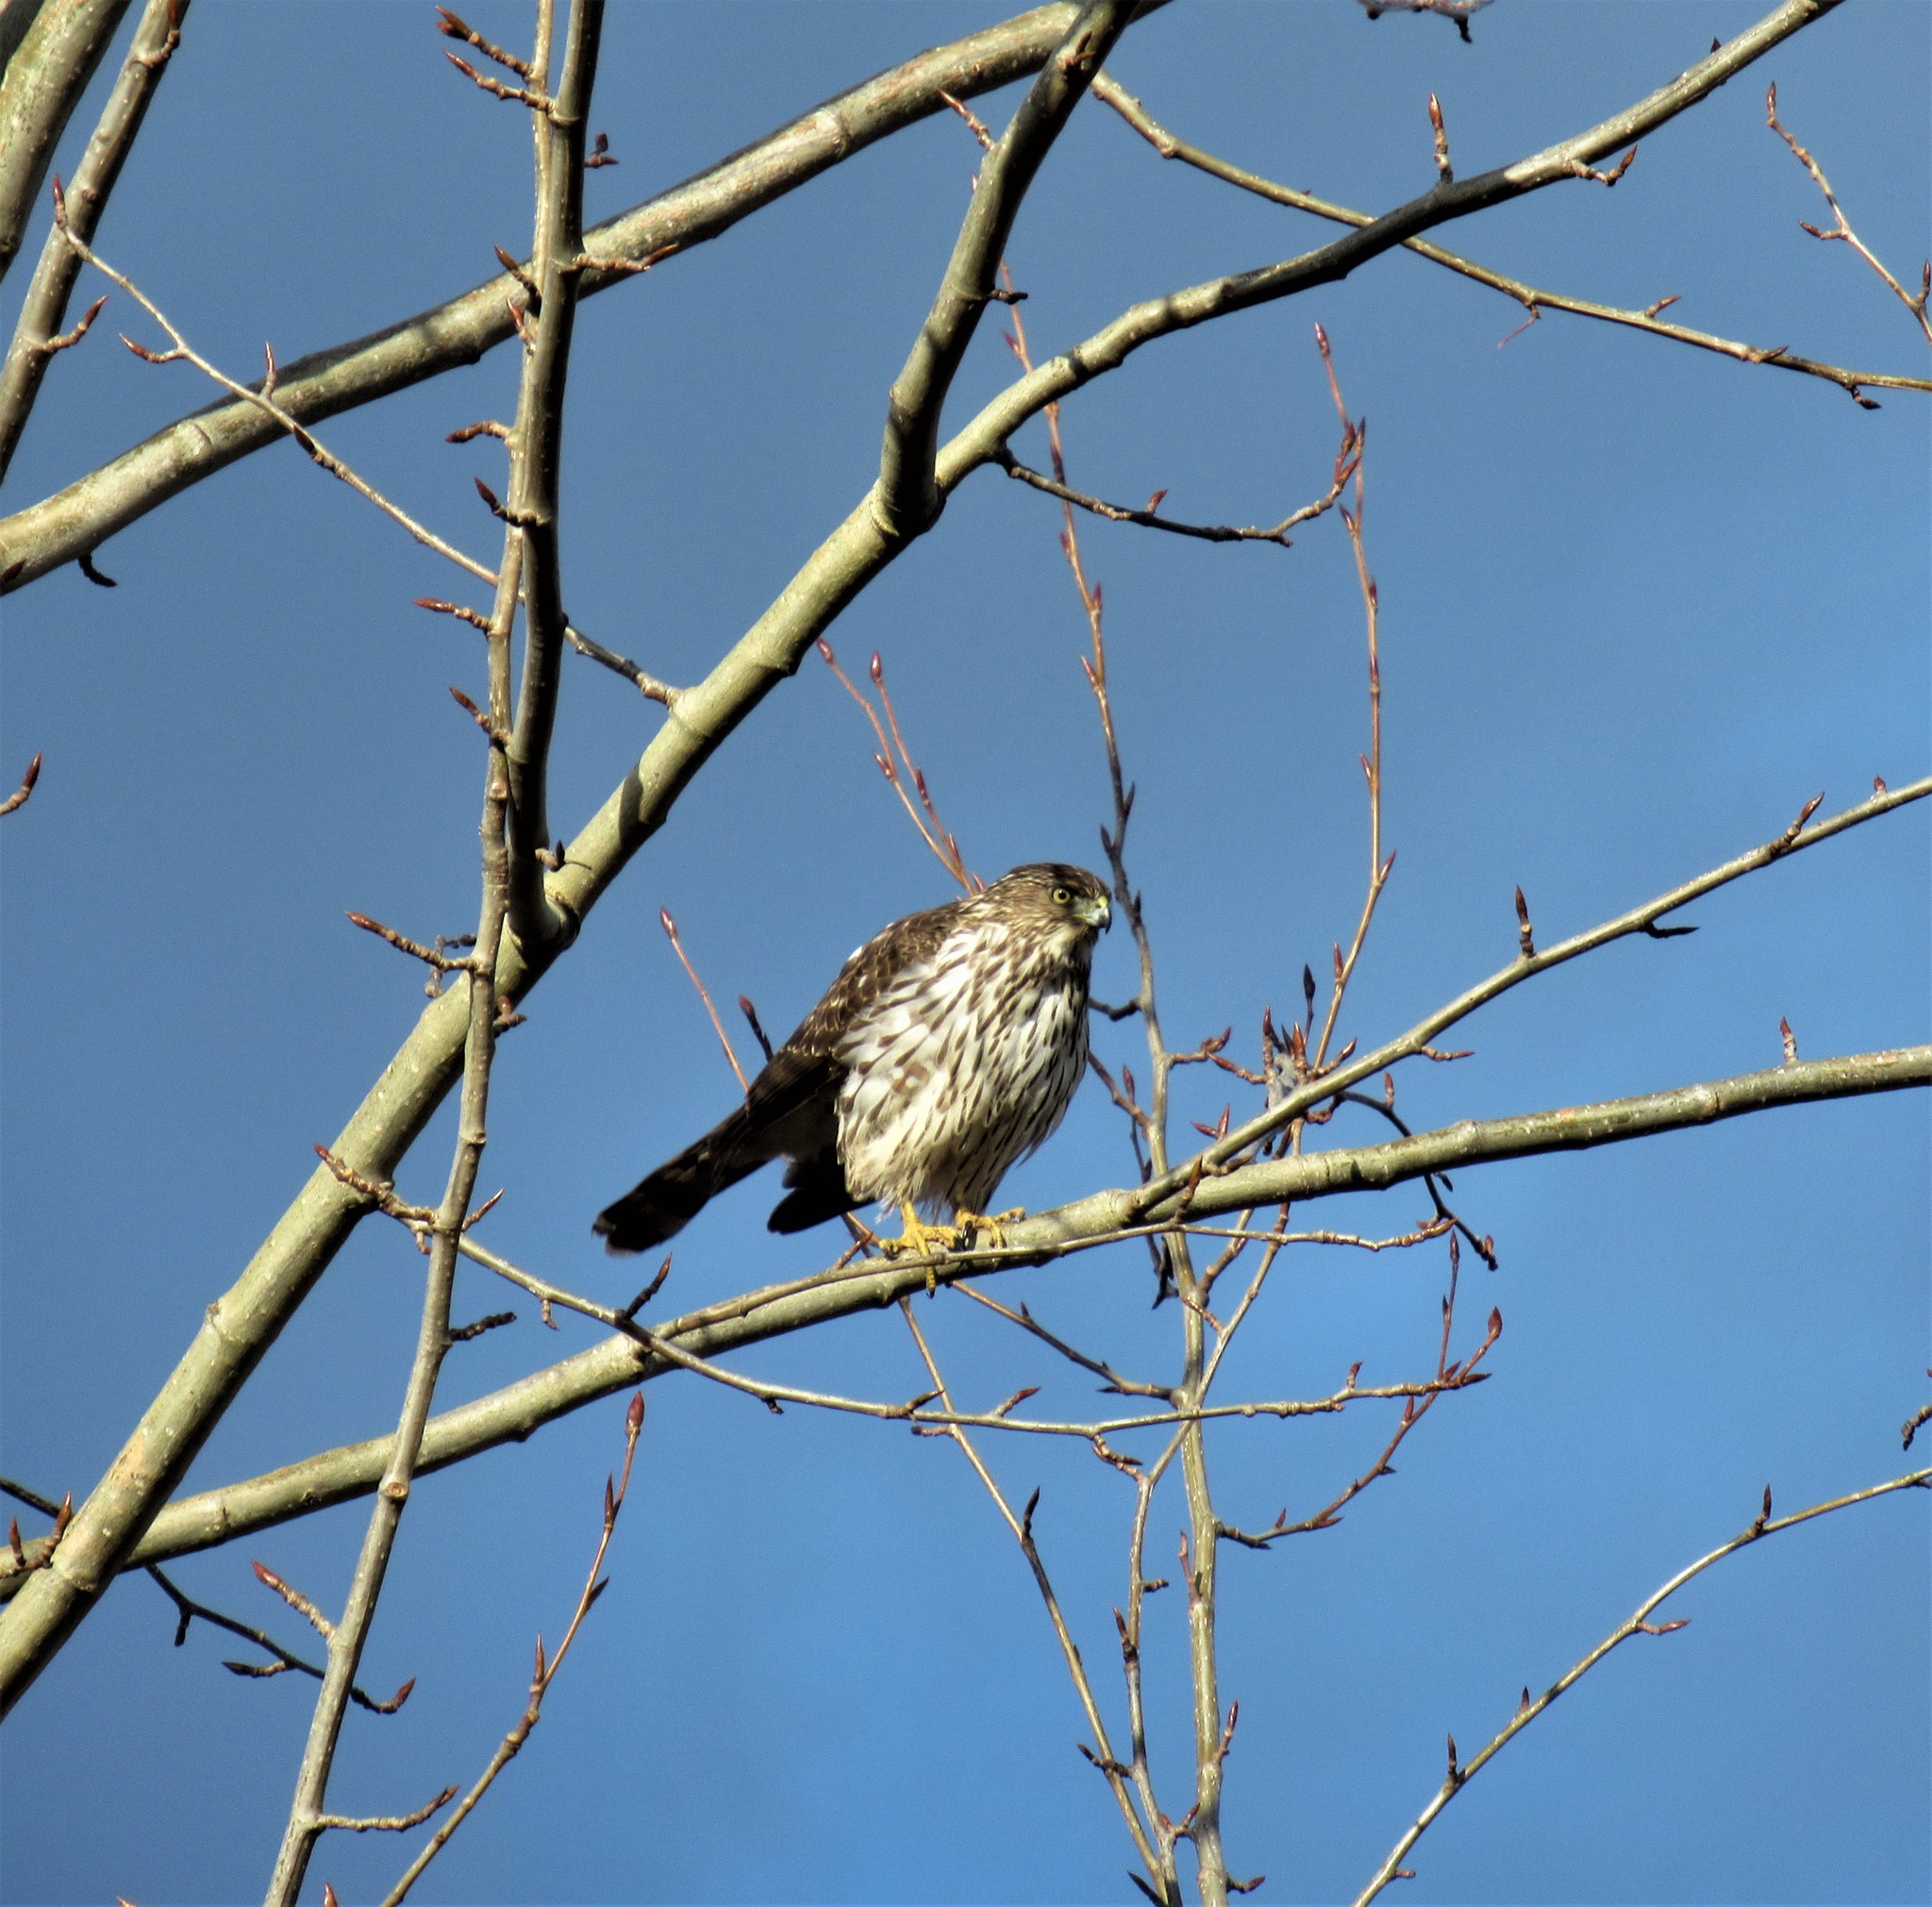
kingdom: Animalia
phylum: Chordata
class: Aves
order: Accipitriformes
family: Accipitridae
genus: Accipiter
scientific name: Accipiter cooperii
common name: Cooper's hawk
